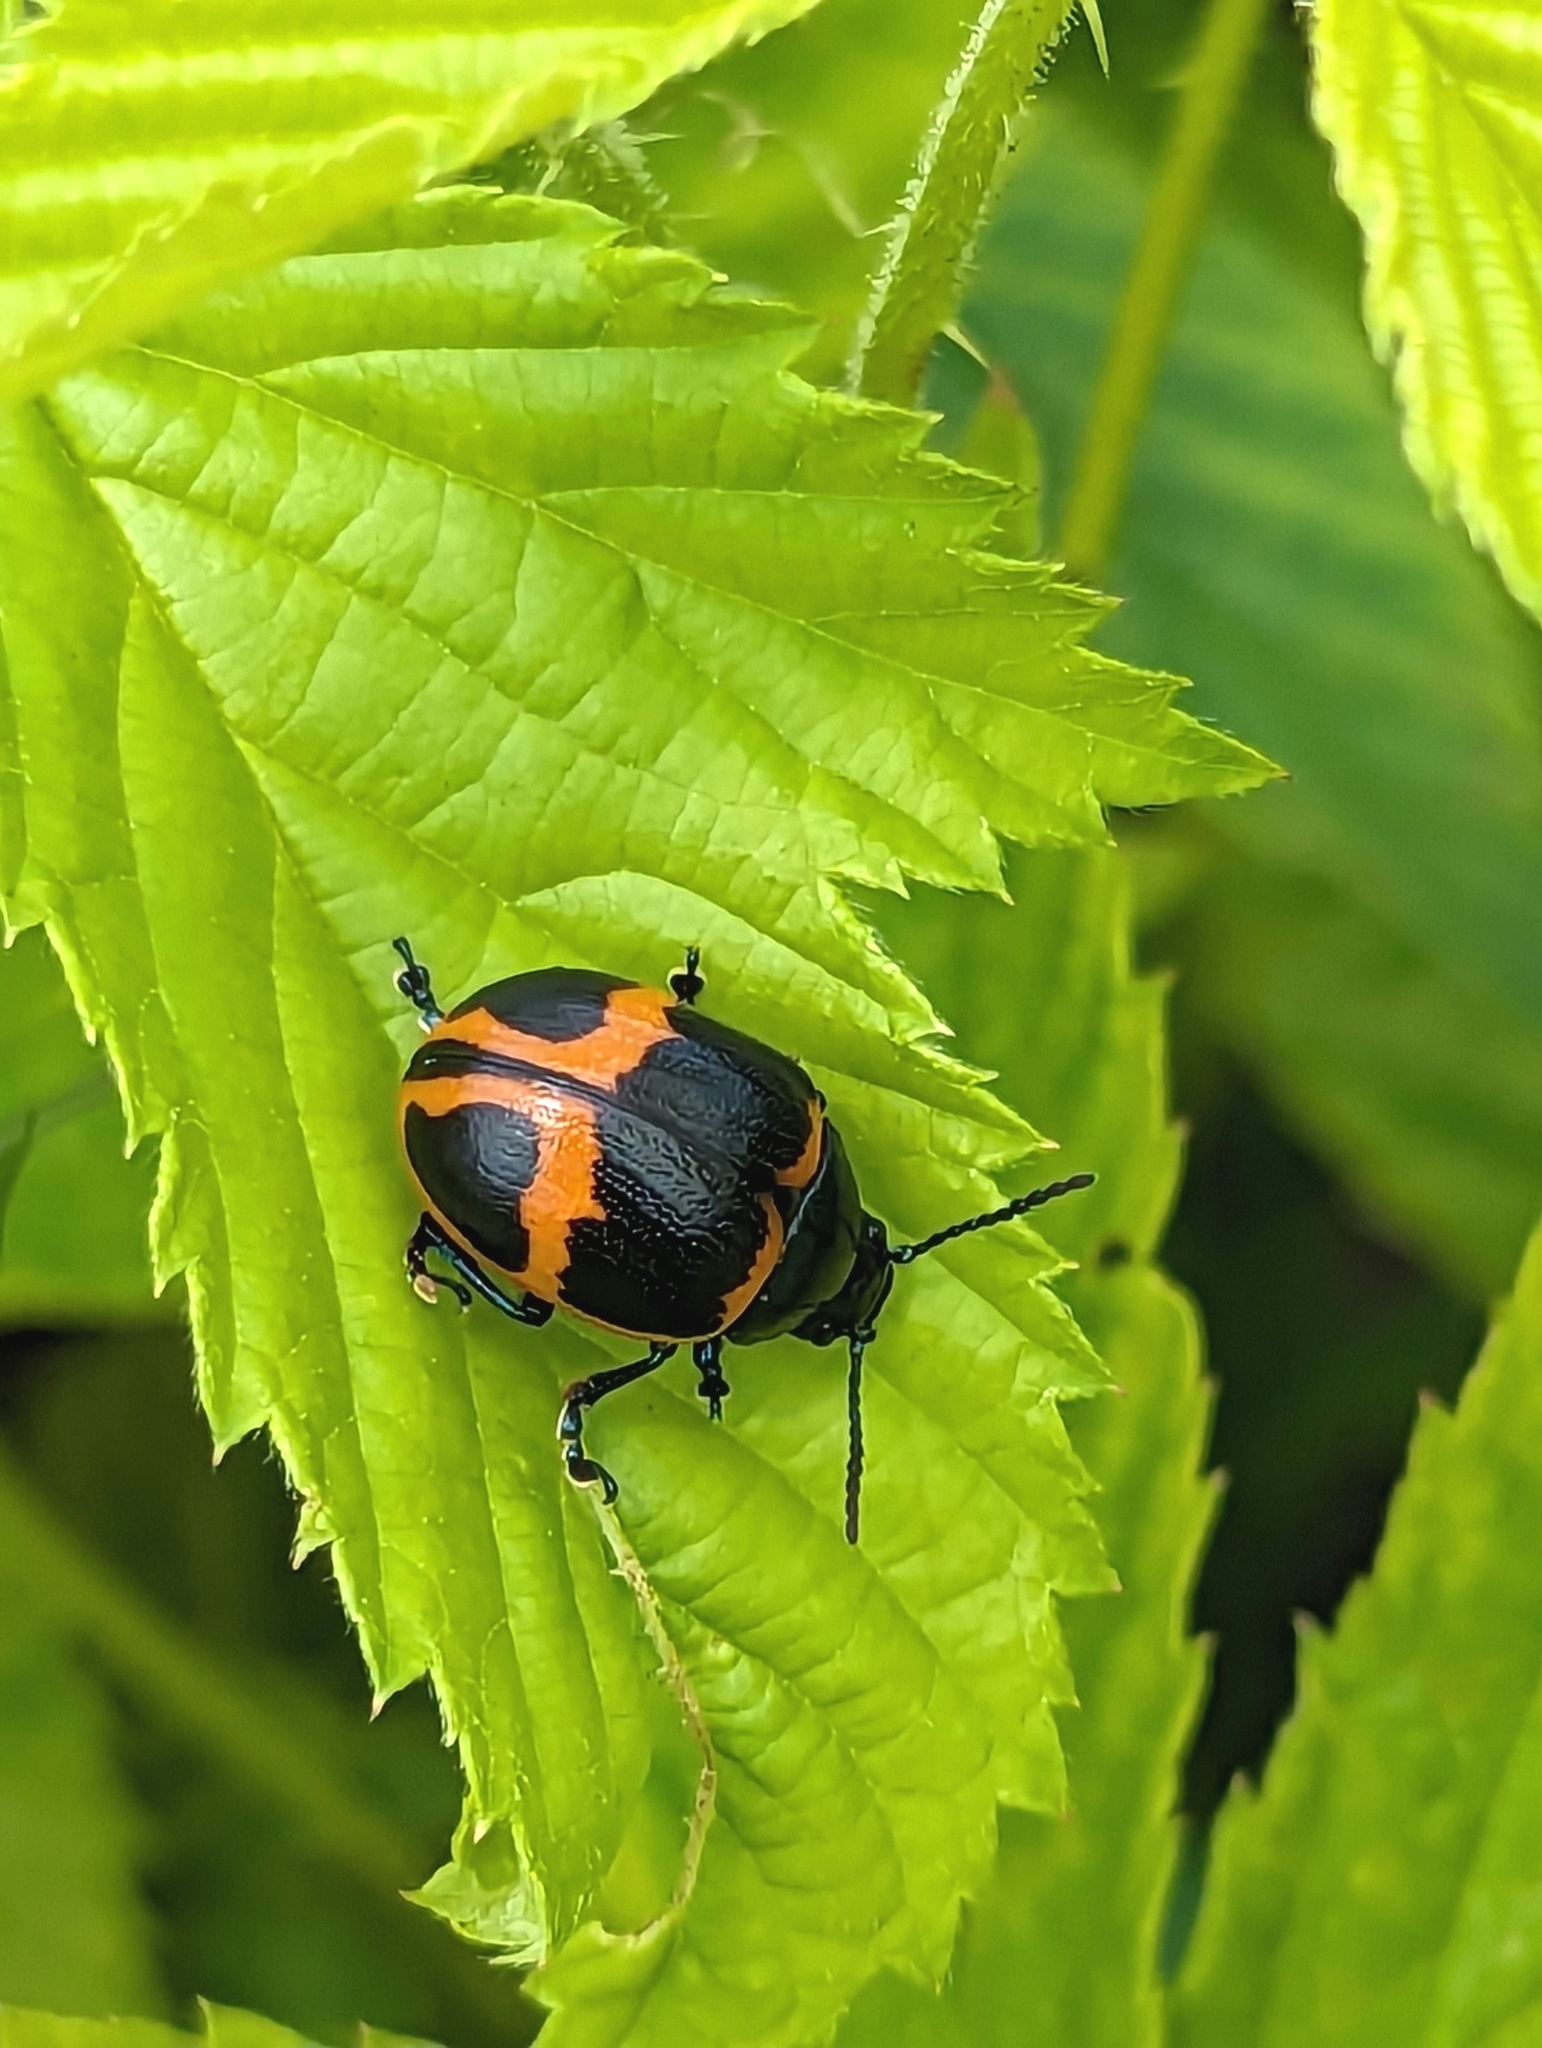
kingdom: Animalia
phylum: Arthropoda
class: Insecta
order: Coleoptera
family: Chrysomelidae
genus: Labidomera
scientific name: Labidomera clivicollis
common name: Swamp milkweed leaf beetle
